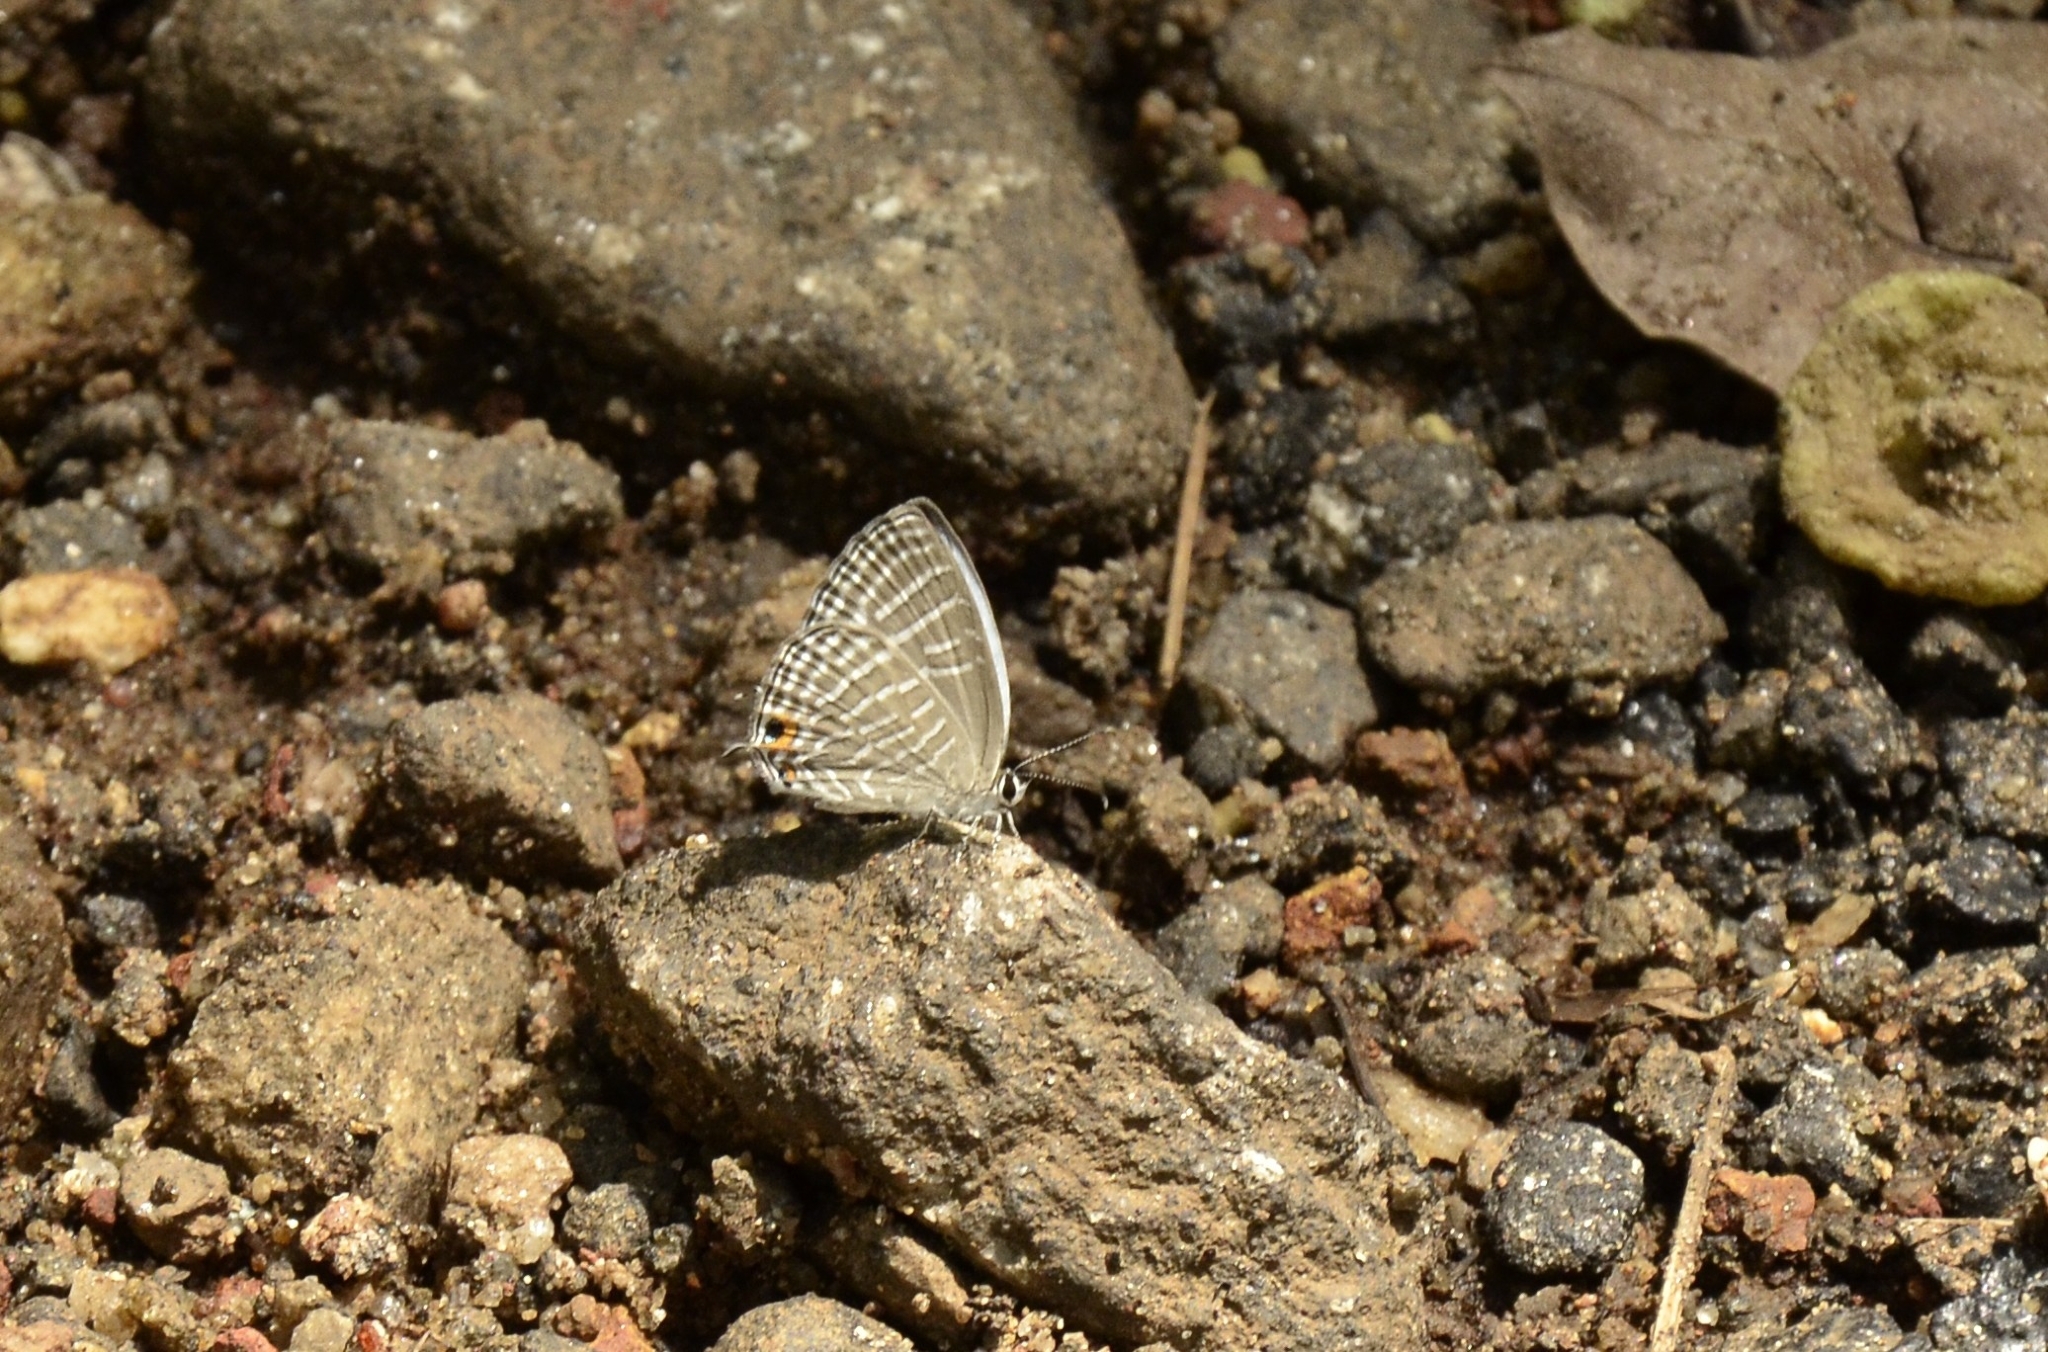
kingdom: Animalia
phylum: Arthropoda
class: Insecta
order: Lepidoptera
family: Lycaenidae
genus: Jamides
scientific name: Jamides celeno
